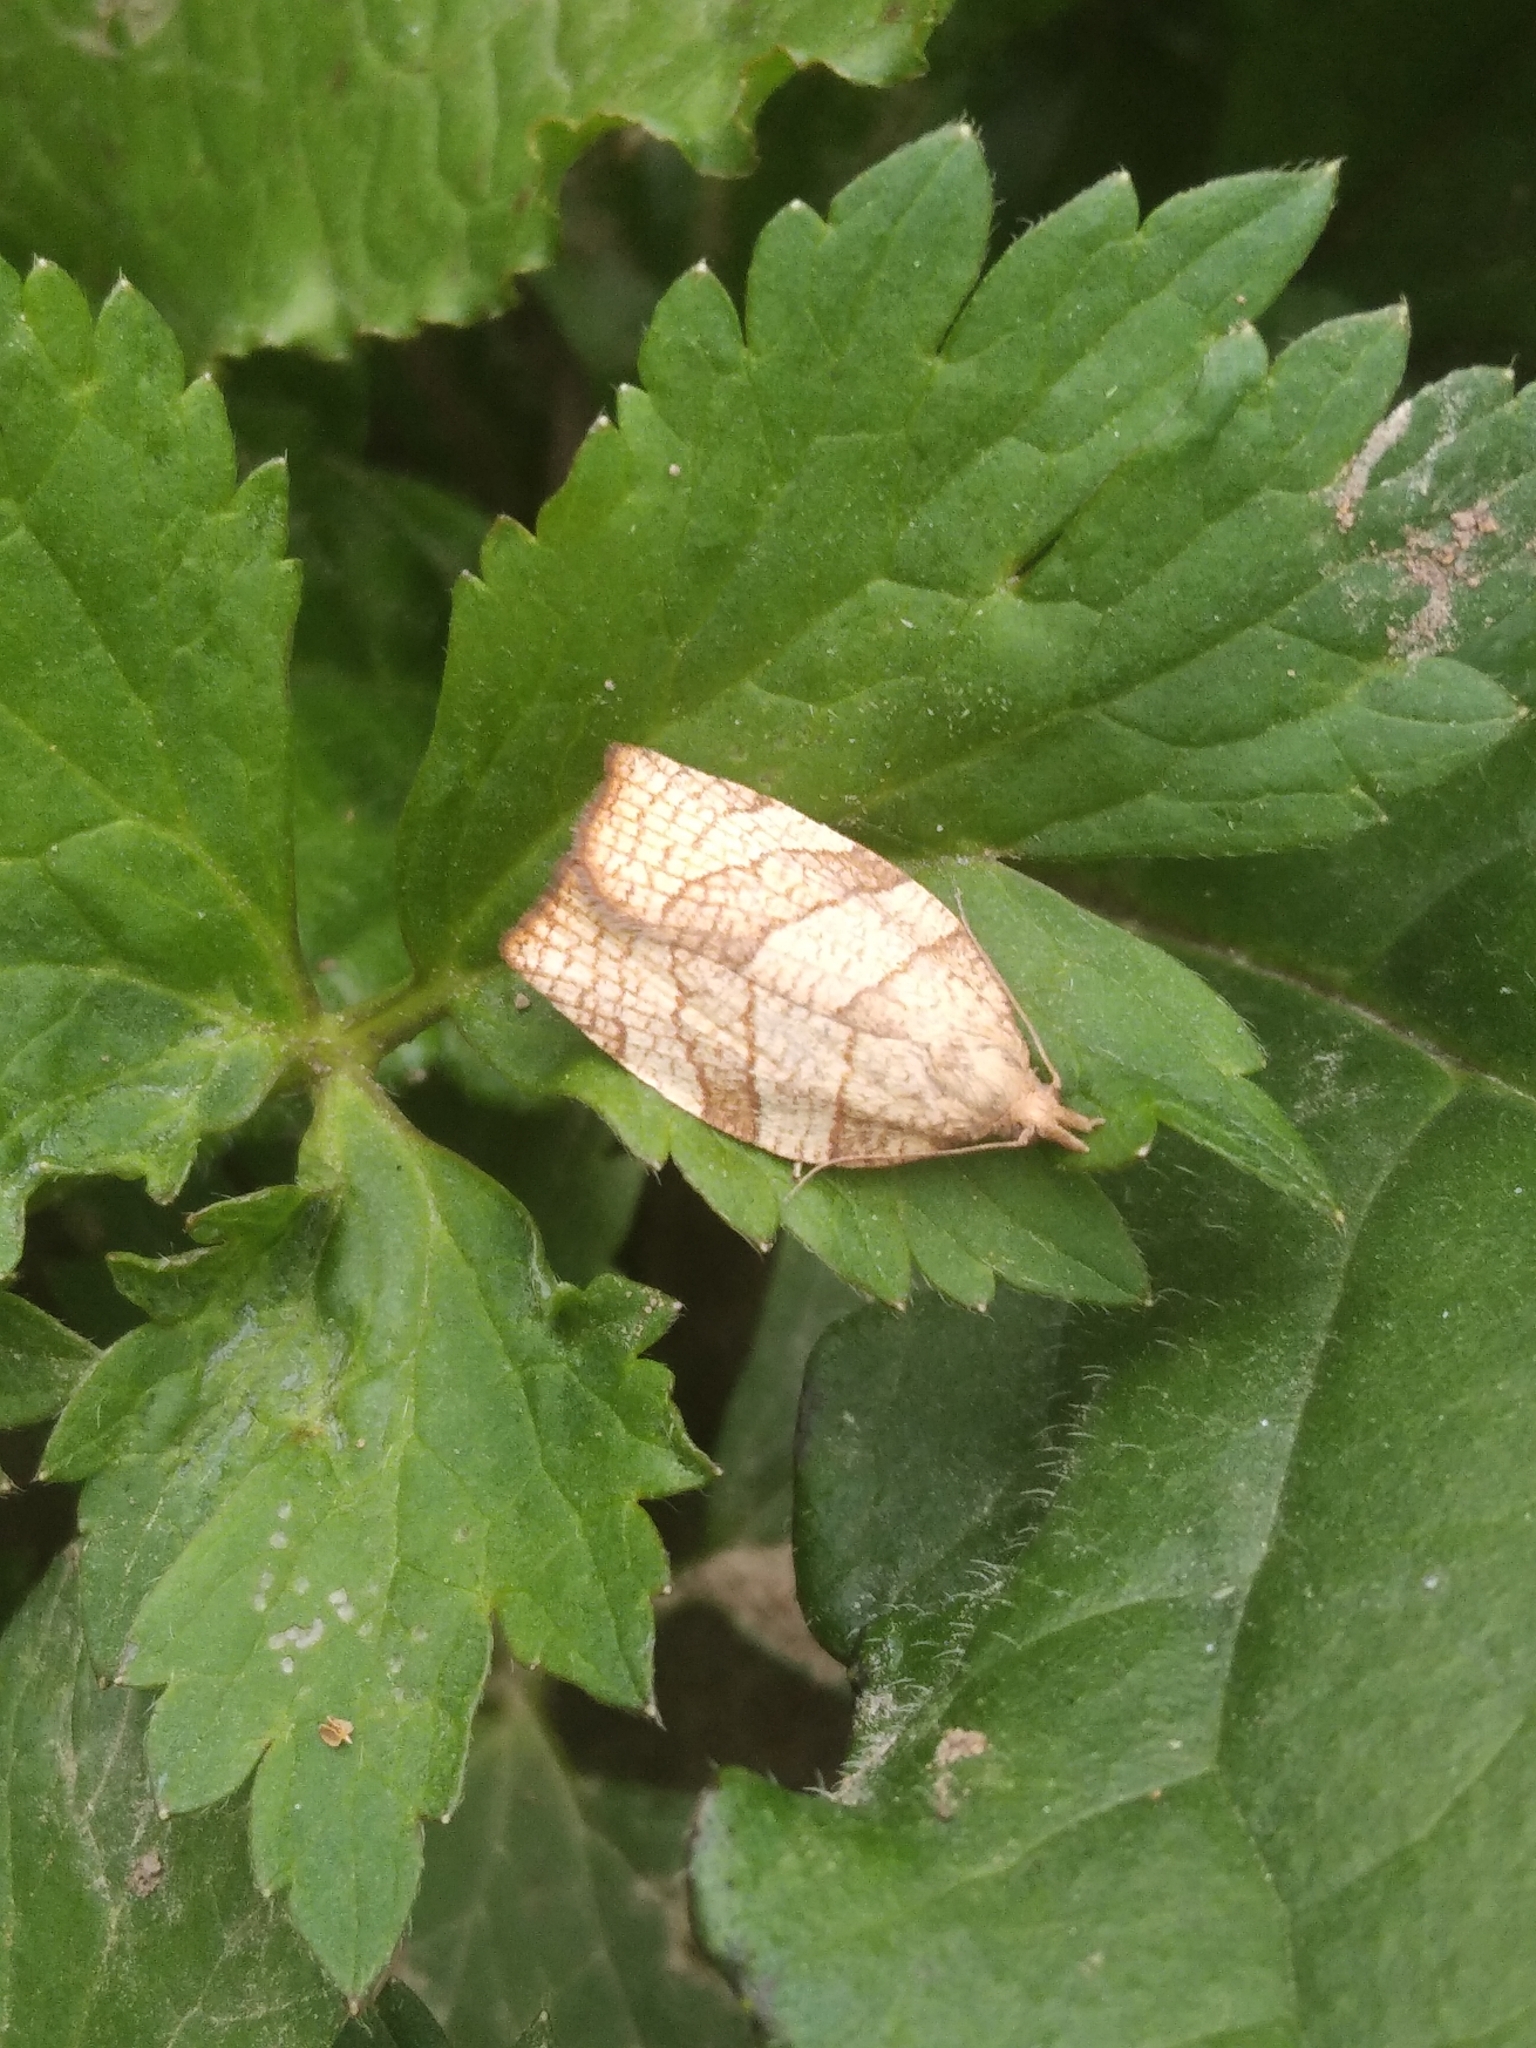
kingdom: Animalia
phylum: Arthropoda
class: Insecta
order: Lepidoptera
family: Tortricidae
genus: Pandemis
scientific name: Pandemis corylana
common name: Chequered fruit-tree tortrix
